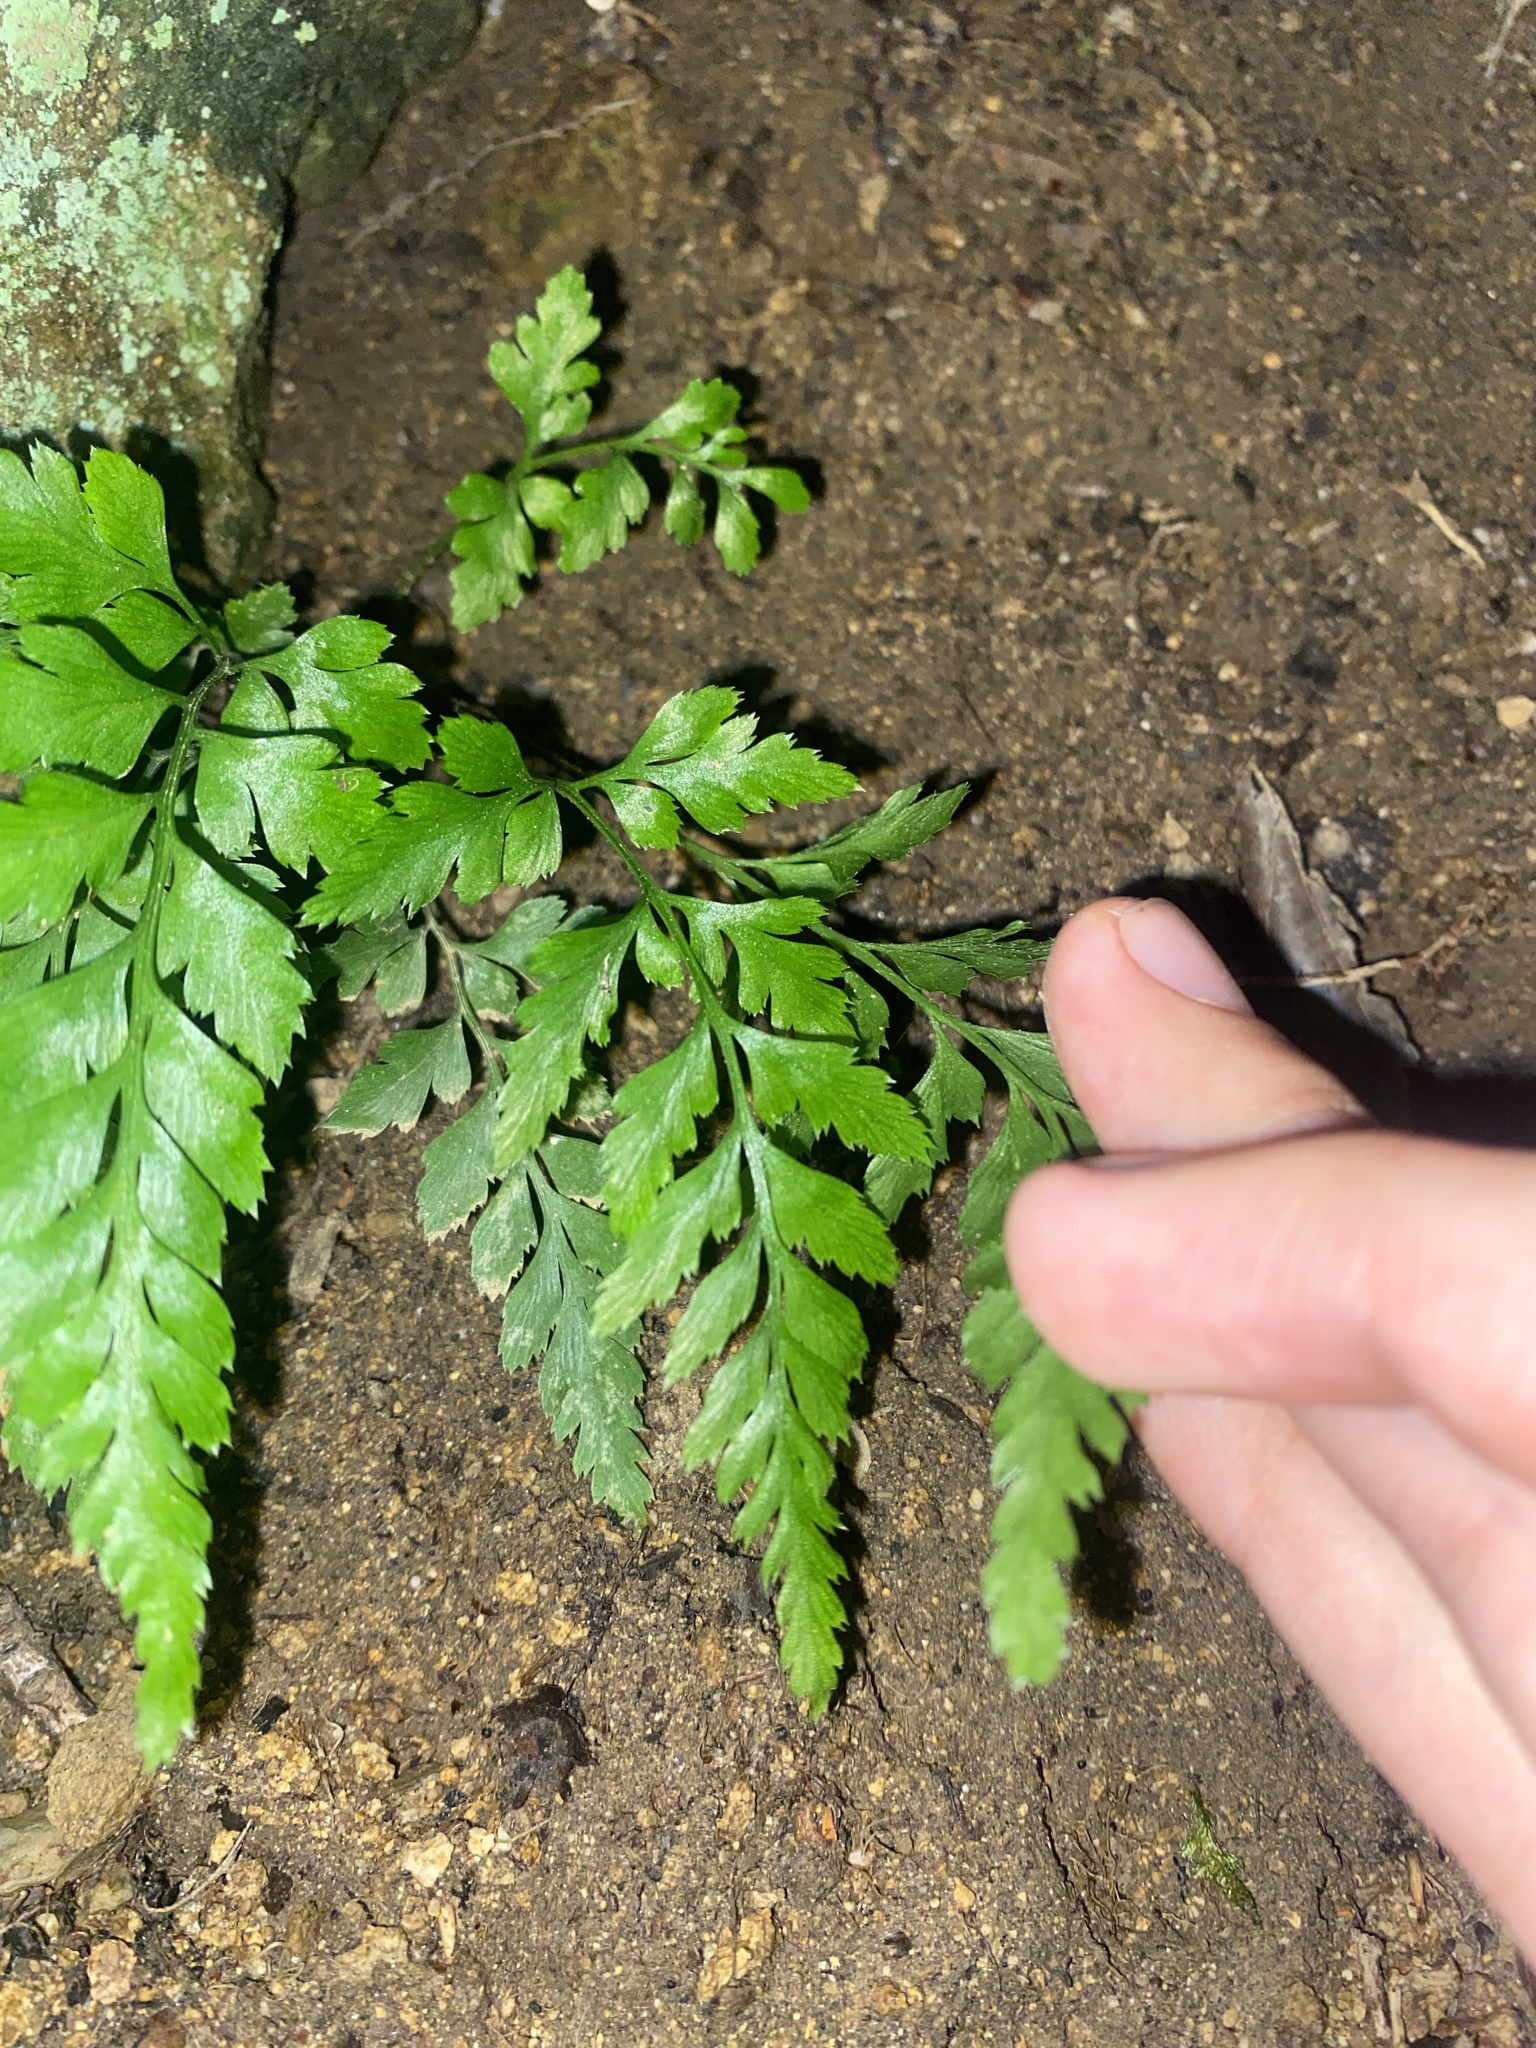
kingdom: Plantae
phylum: Tracheophyta
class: Polypodiopsida
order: Polypodiales
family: Aspleniaceae
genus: Asplenium
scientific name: Asplenium adiantum-nigrum
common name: Black spleenwort
